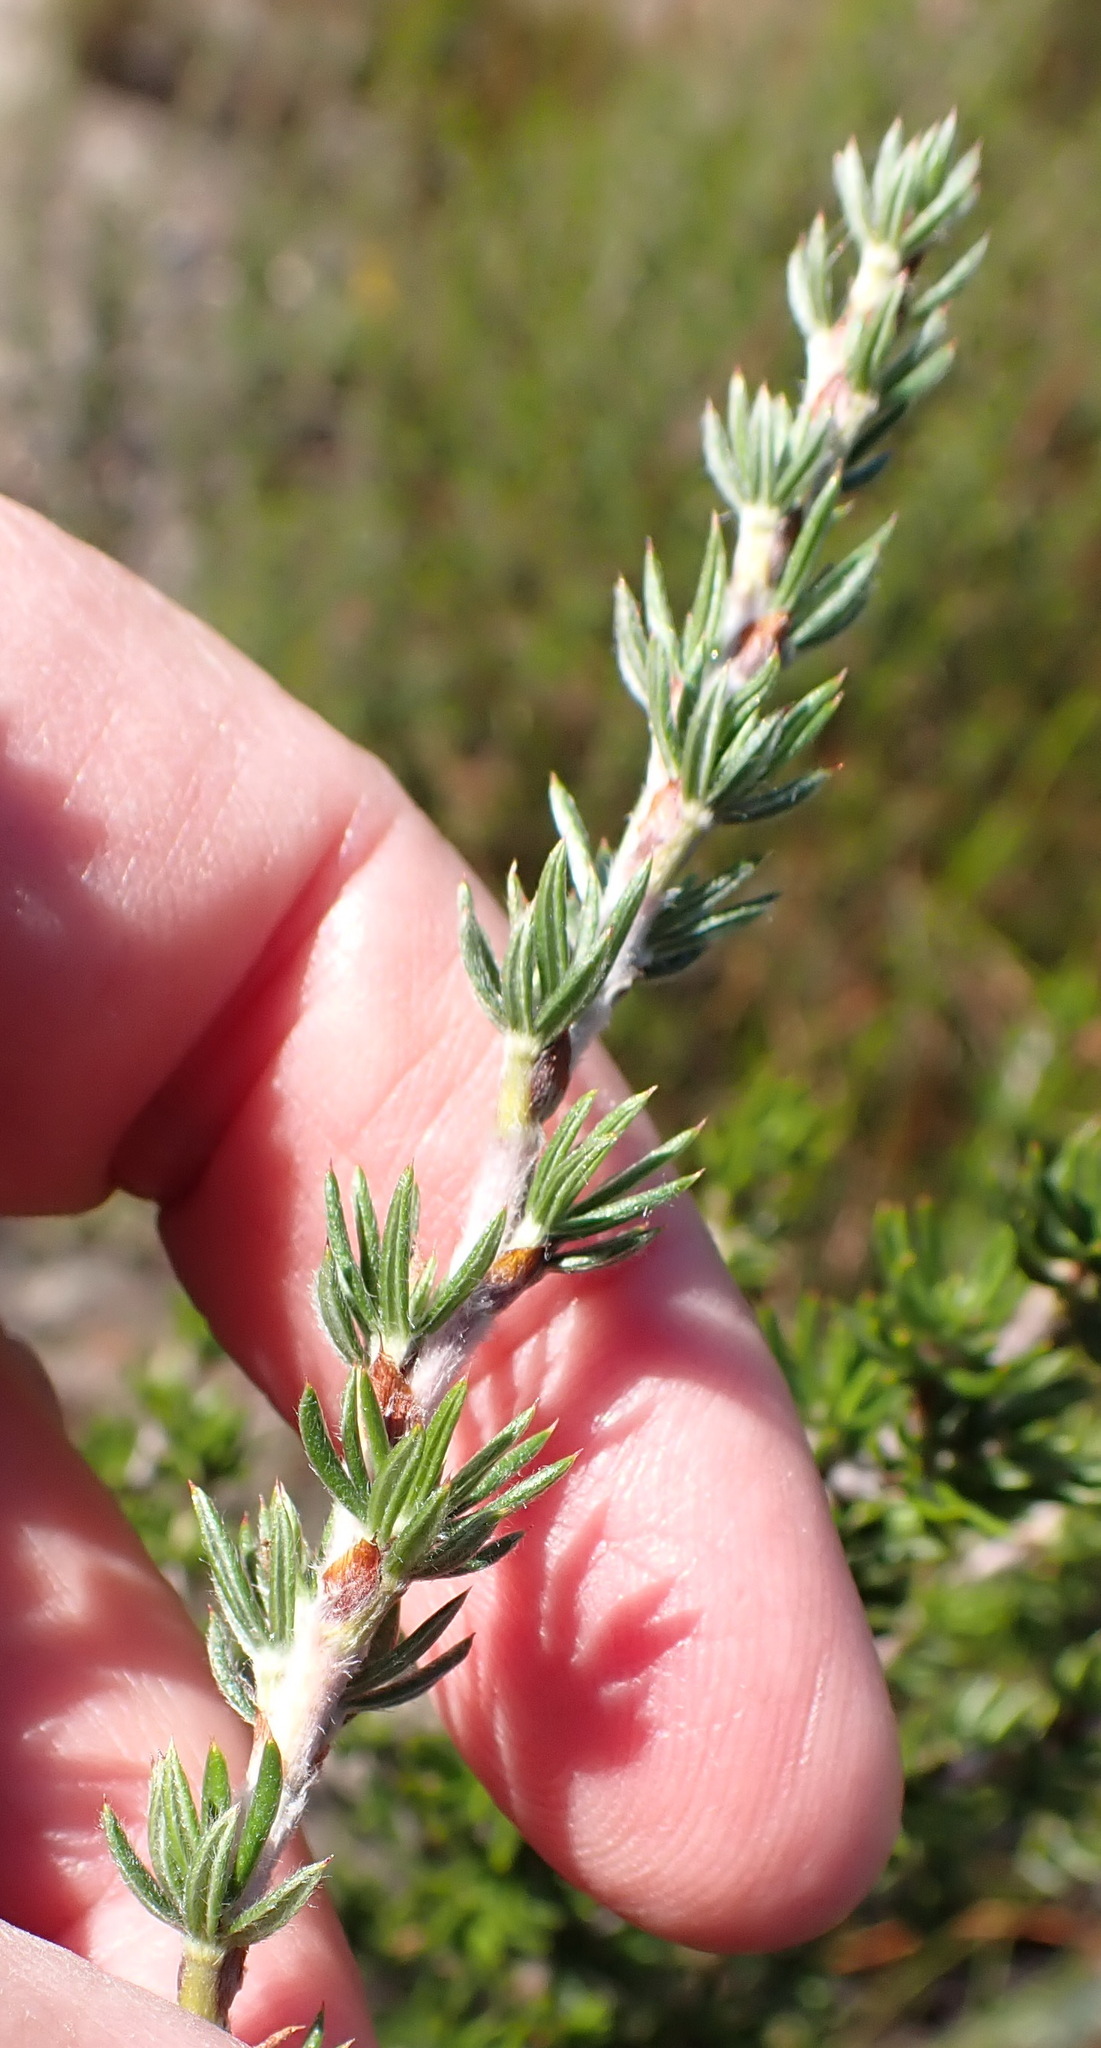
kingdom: Plantae
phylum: Tracheophyta
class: Magnoliopsida
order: Rosales
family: Rosaceae
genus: Cliffortia
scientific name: Cliffortia stricta
